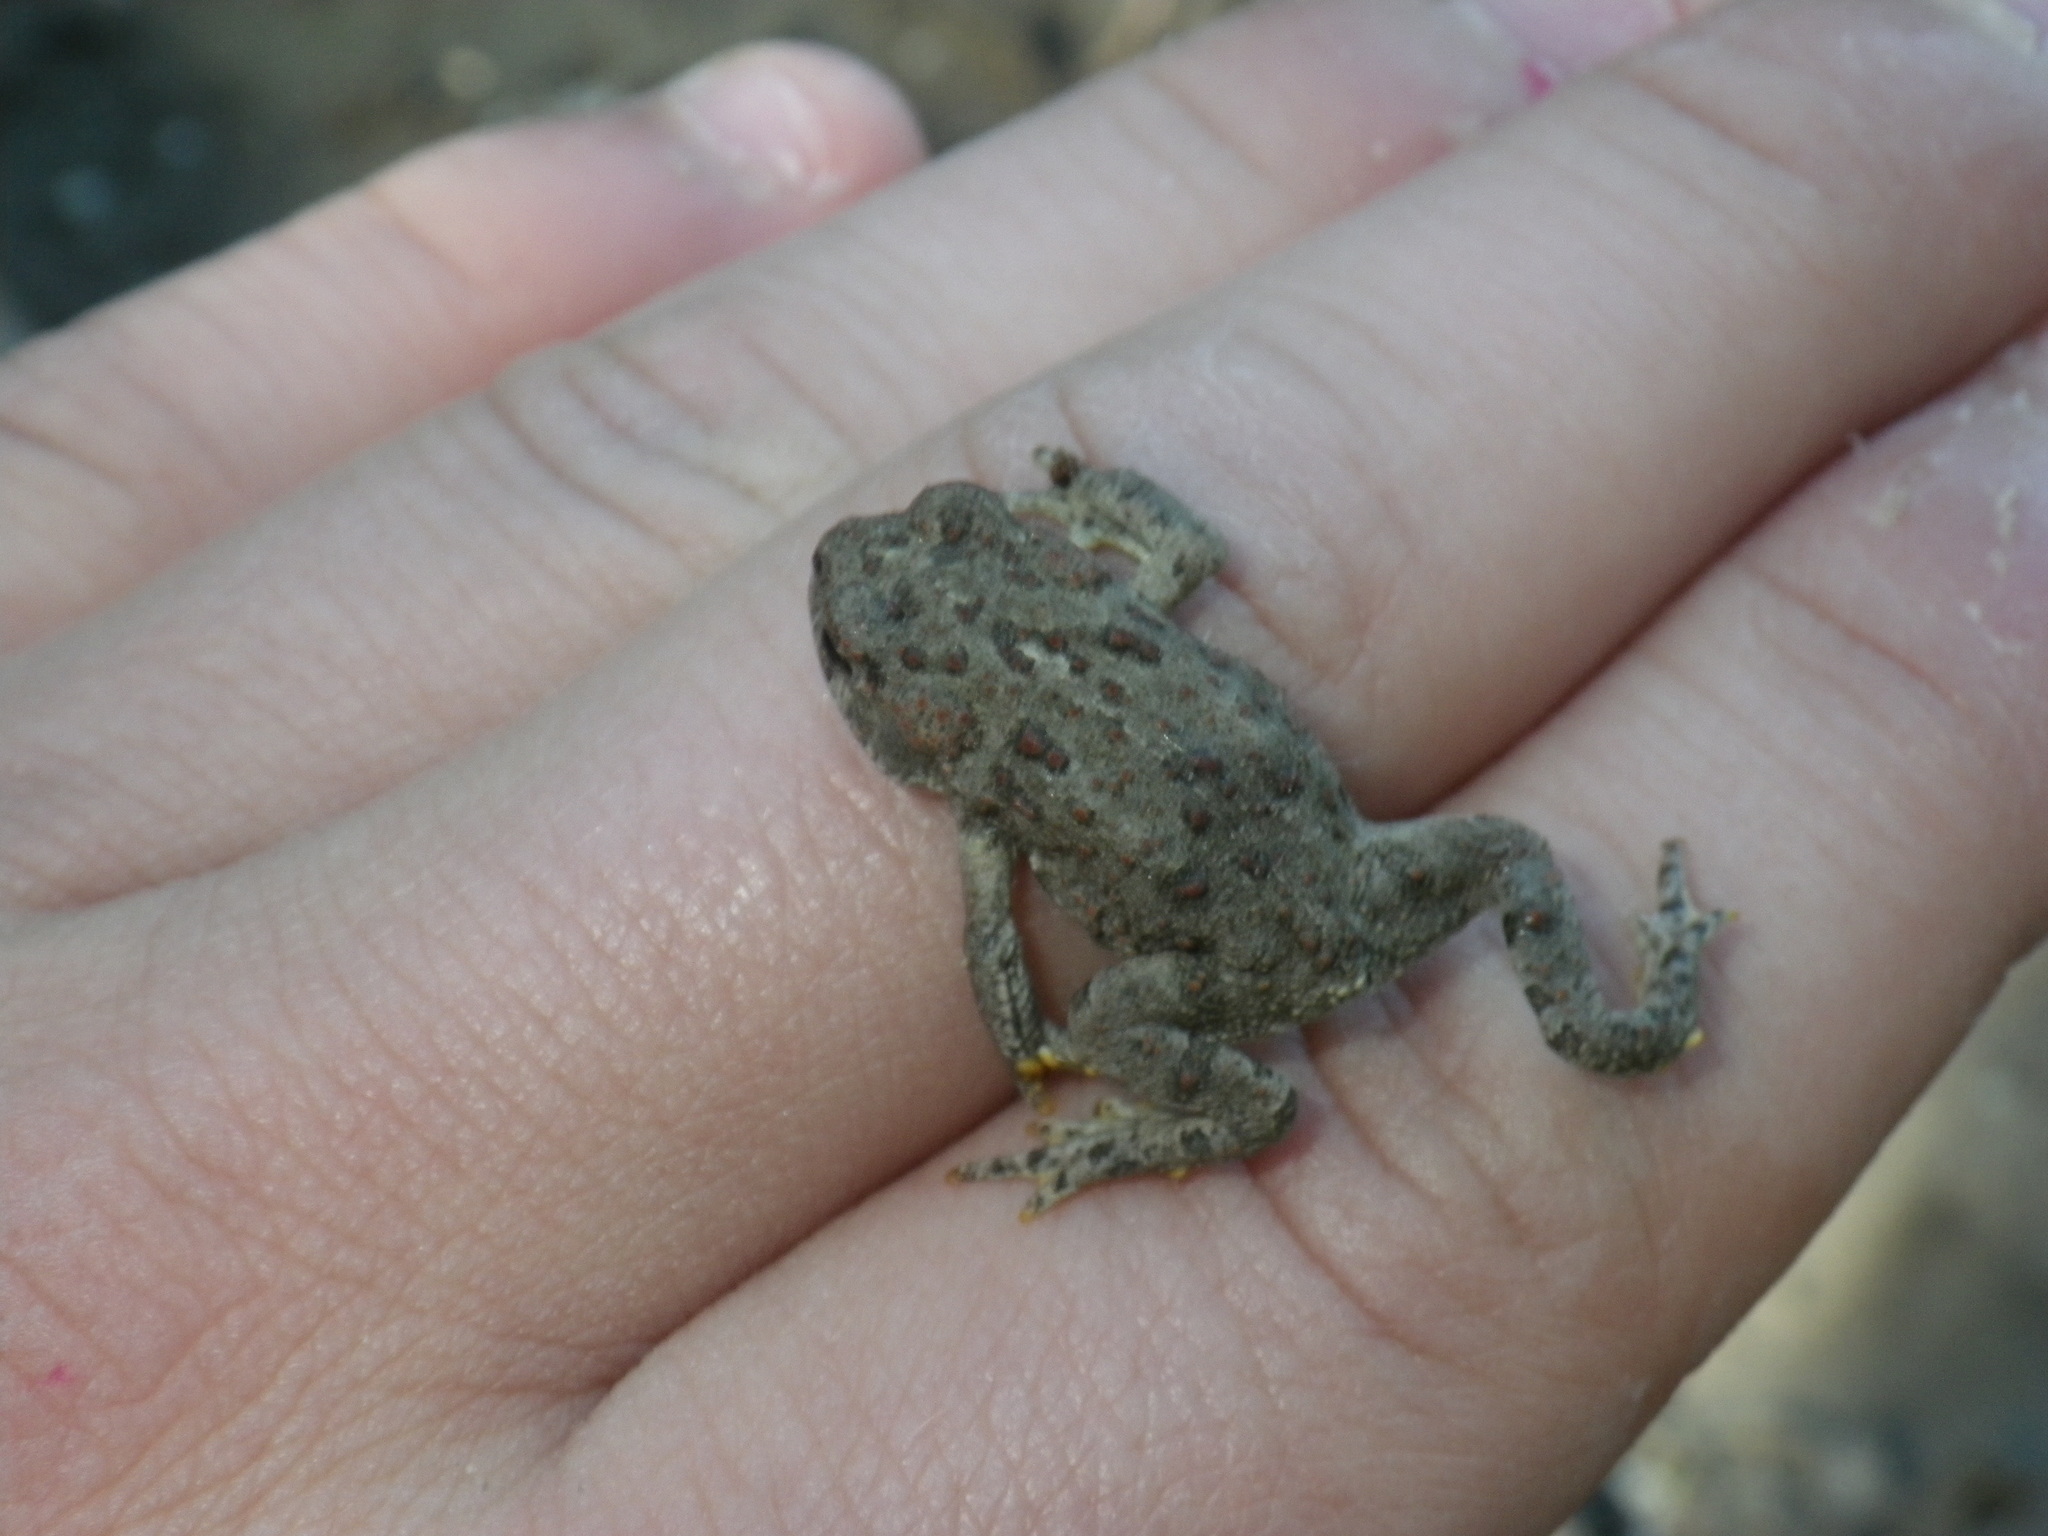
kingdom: Animalia
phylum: Chordata
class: Amphibia
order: Anura
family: Bufonidae
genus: Anaxyrus
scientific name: Anaxyrus boreas
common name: Western toad
